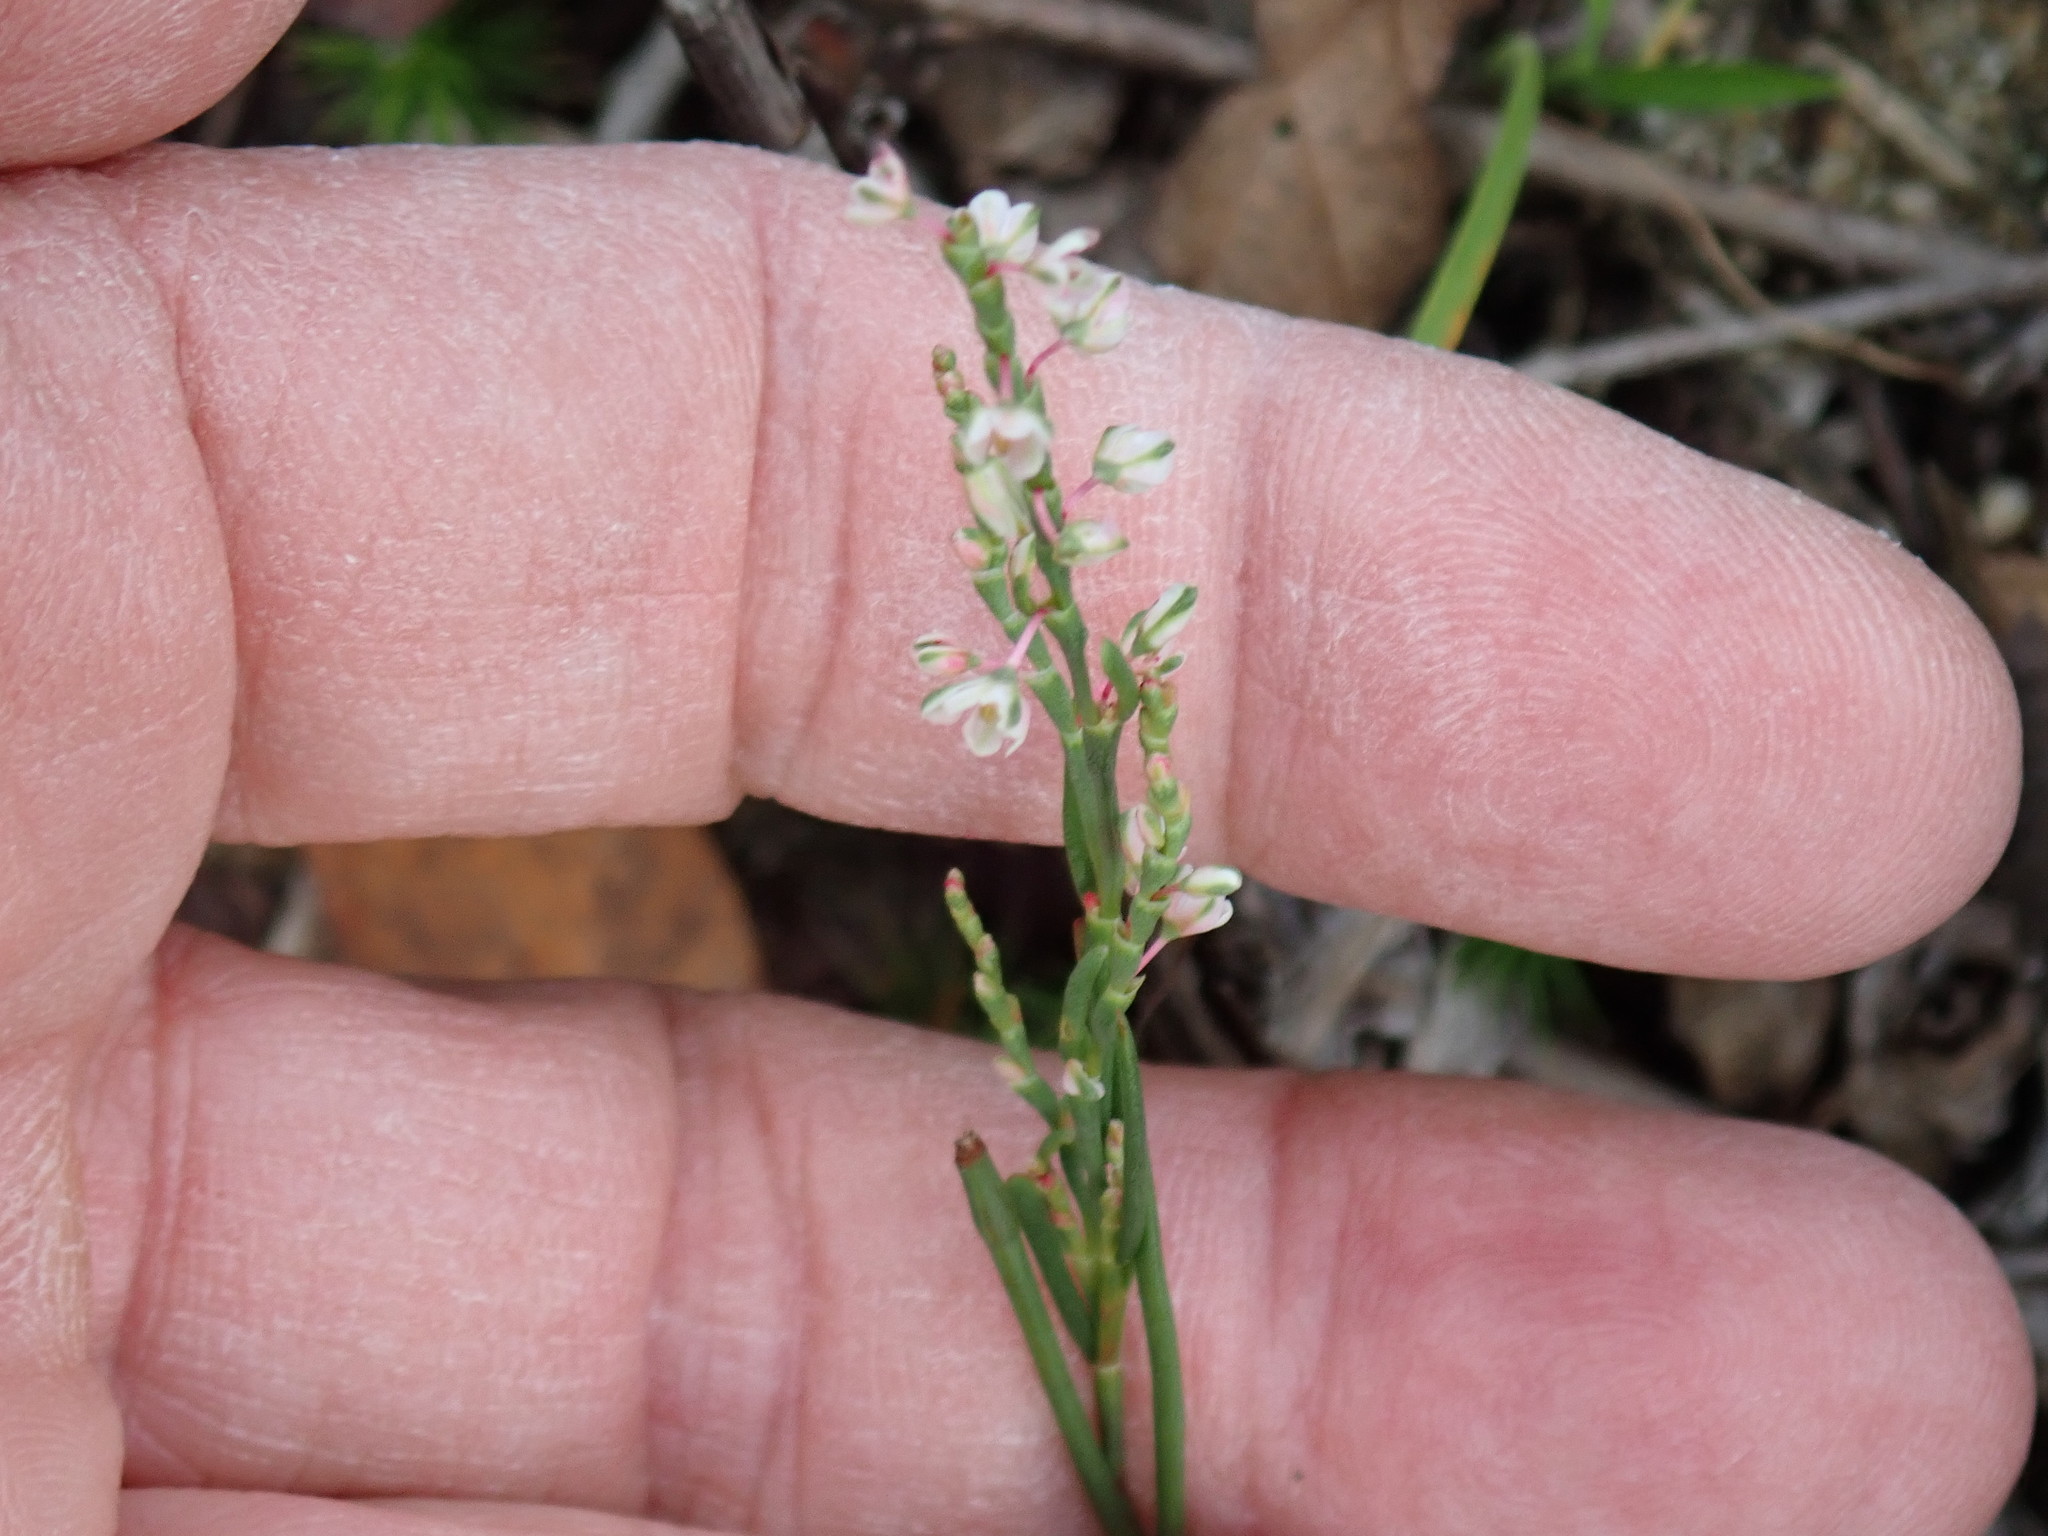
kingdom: Plantae
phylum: Tracheophyta
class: Magnoliopsida
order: Caryophyllales
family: Polygonaceae
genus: Polygonella
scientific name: Polygonella articulata
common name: Coastal jointweed
